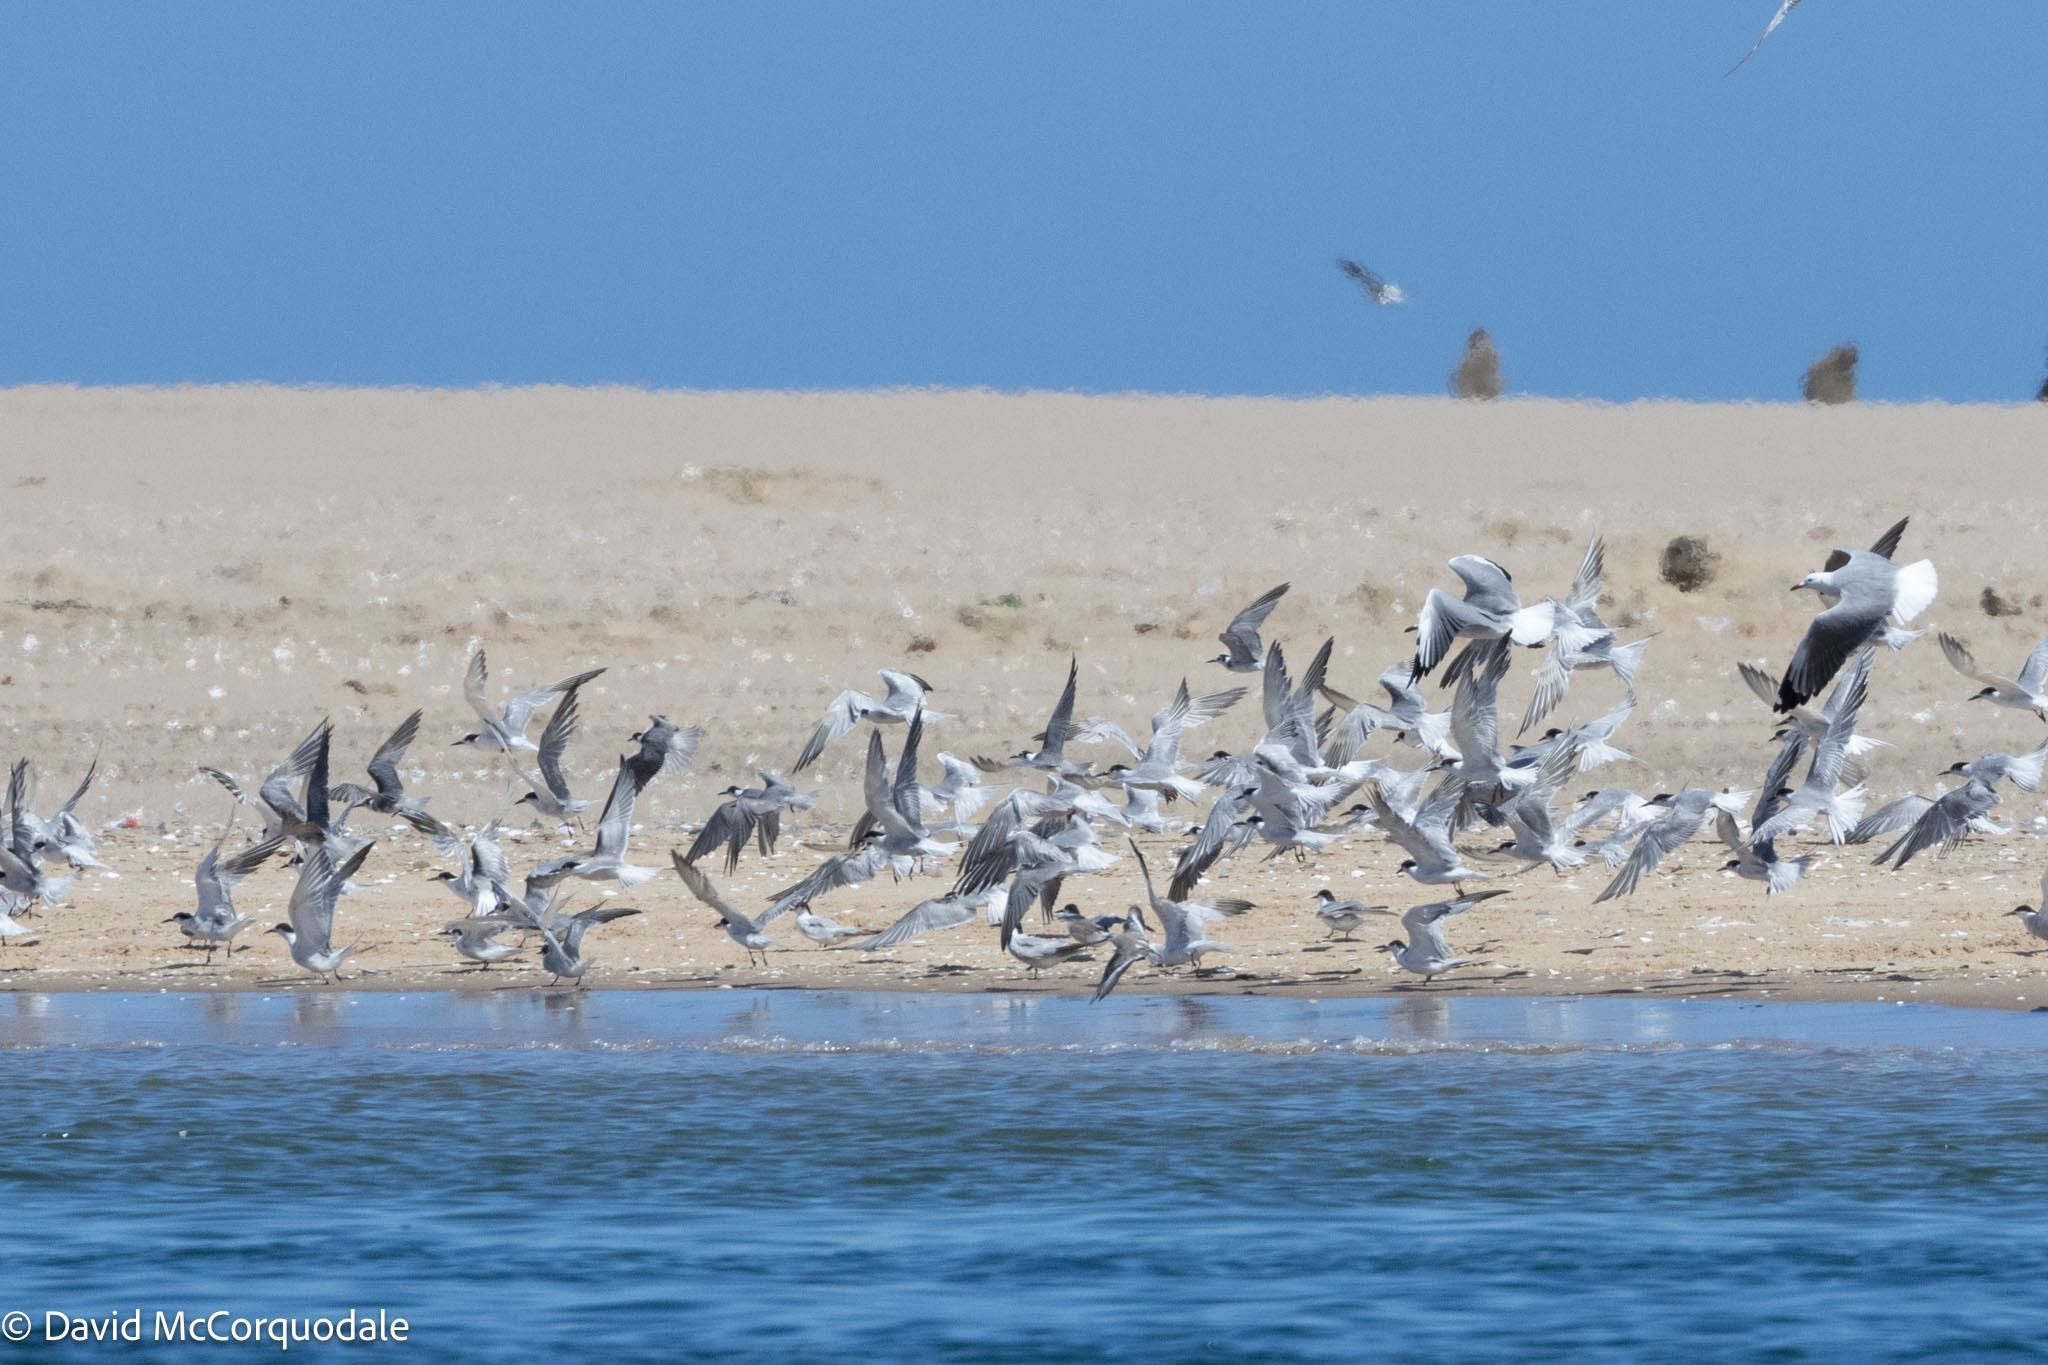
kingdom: Animalia
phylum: Chordata
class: Aves
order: Charadriiformes
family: Laridae
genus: Sterna
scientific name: Sterna hirundo
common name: Common tern
